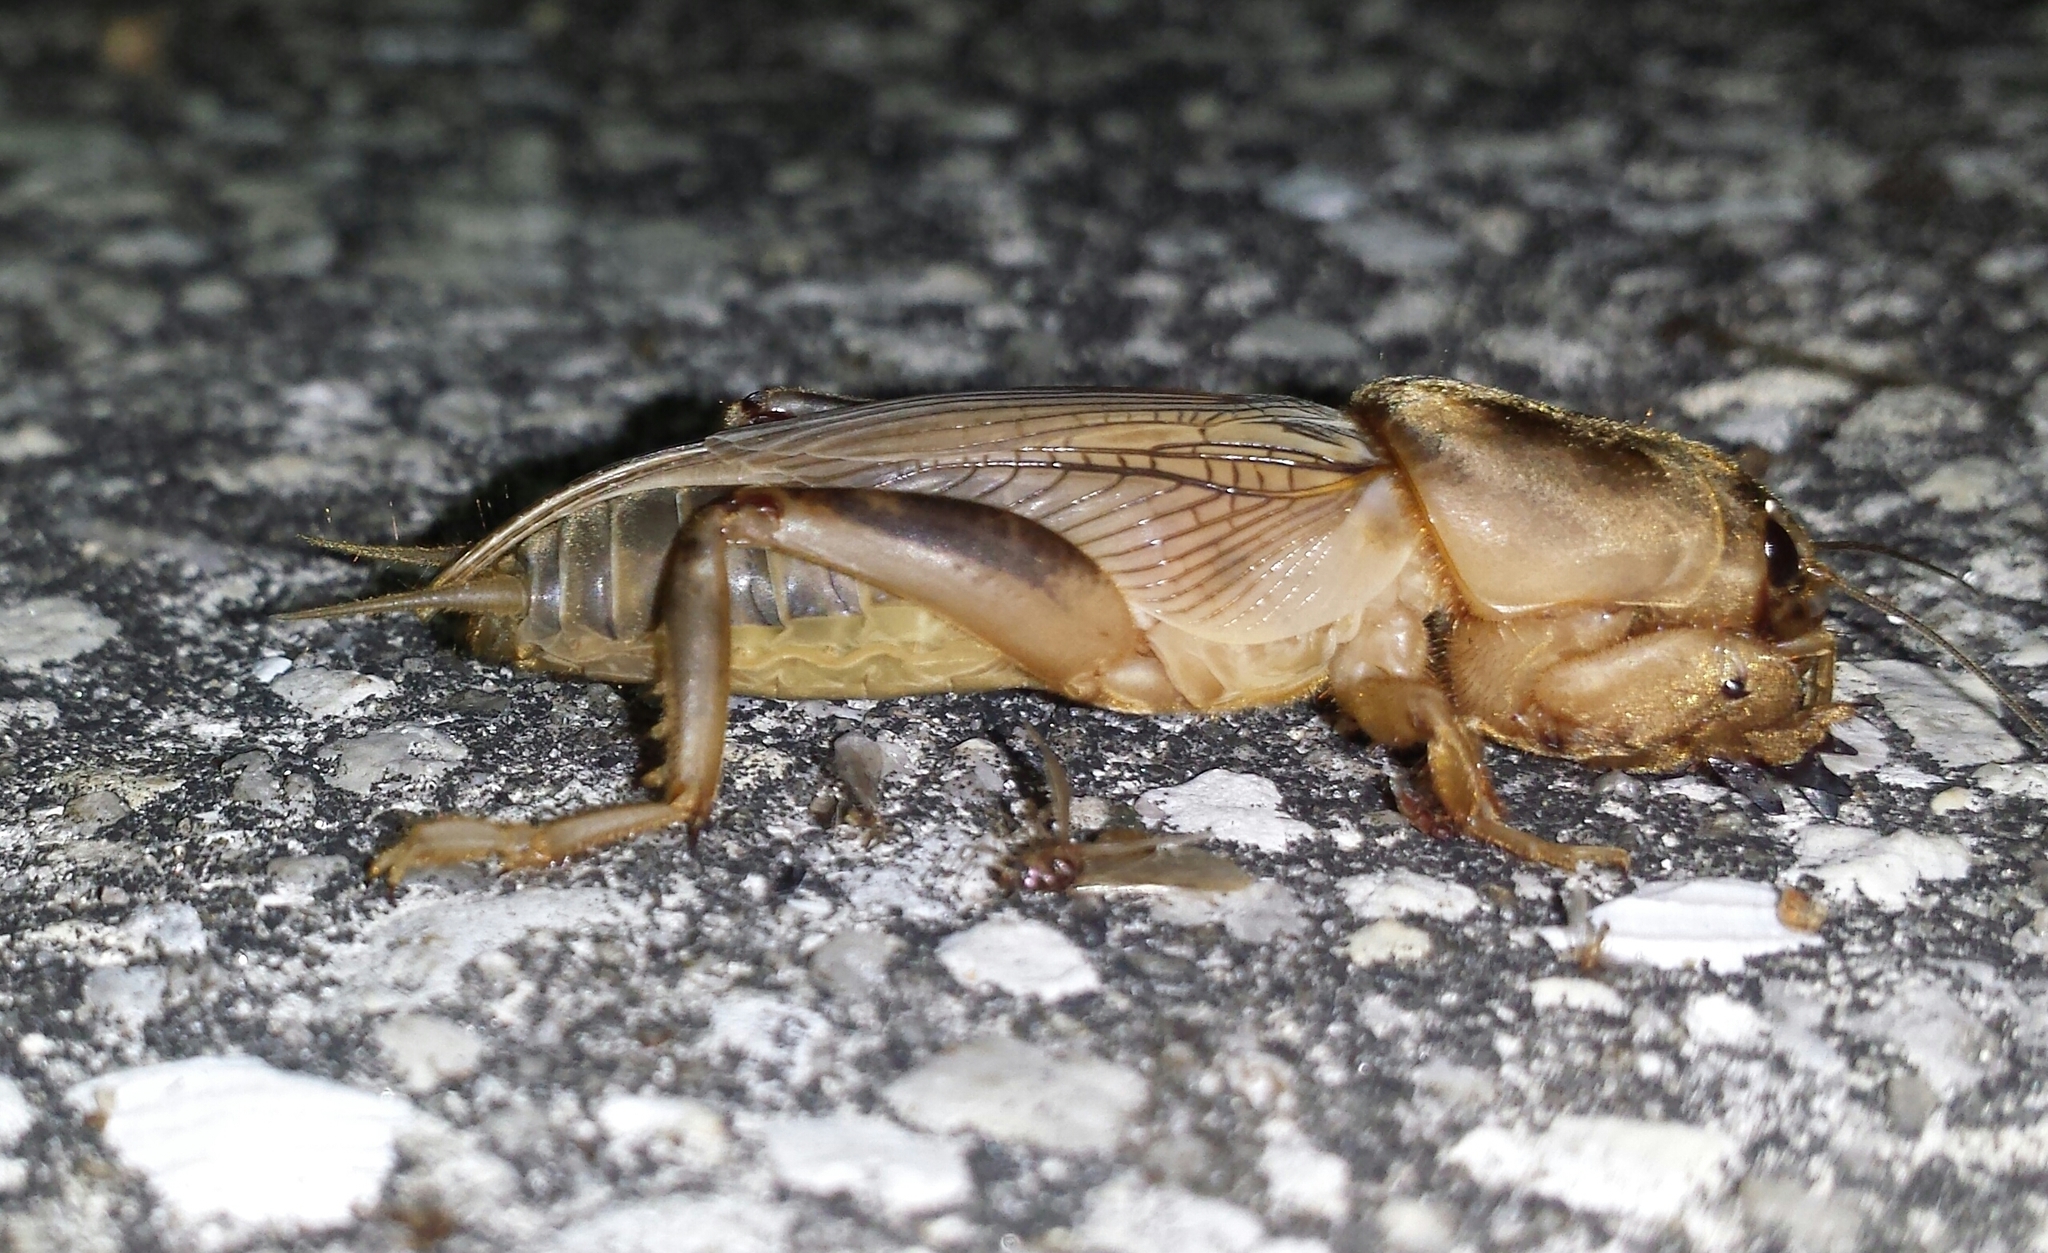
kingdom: Animalia
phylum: Arthropoda
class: Insecta
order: Orthoptera
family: Gryllotalpidae
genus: Neoscapteriscus
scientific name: Neoscapteriscus vicinus
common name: Tawny mole cricket
